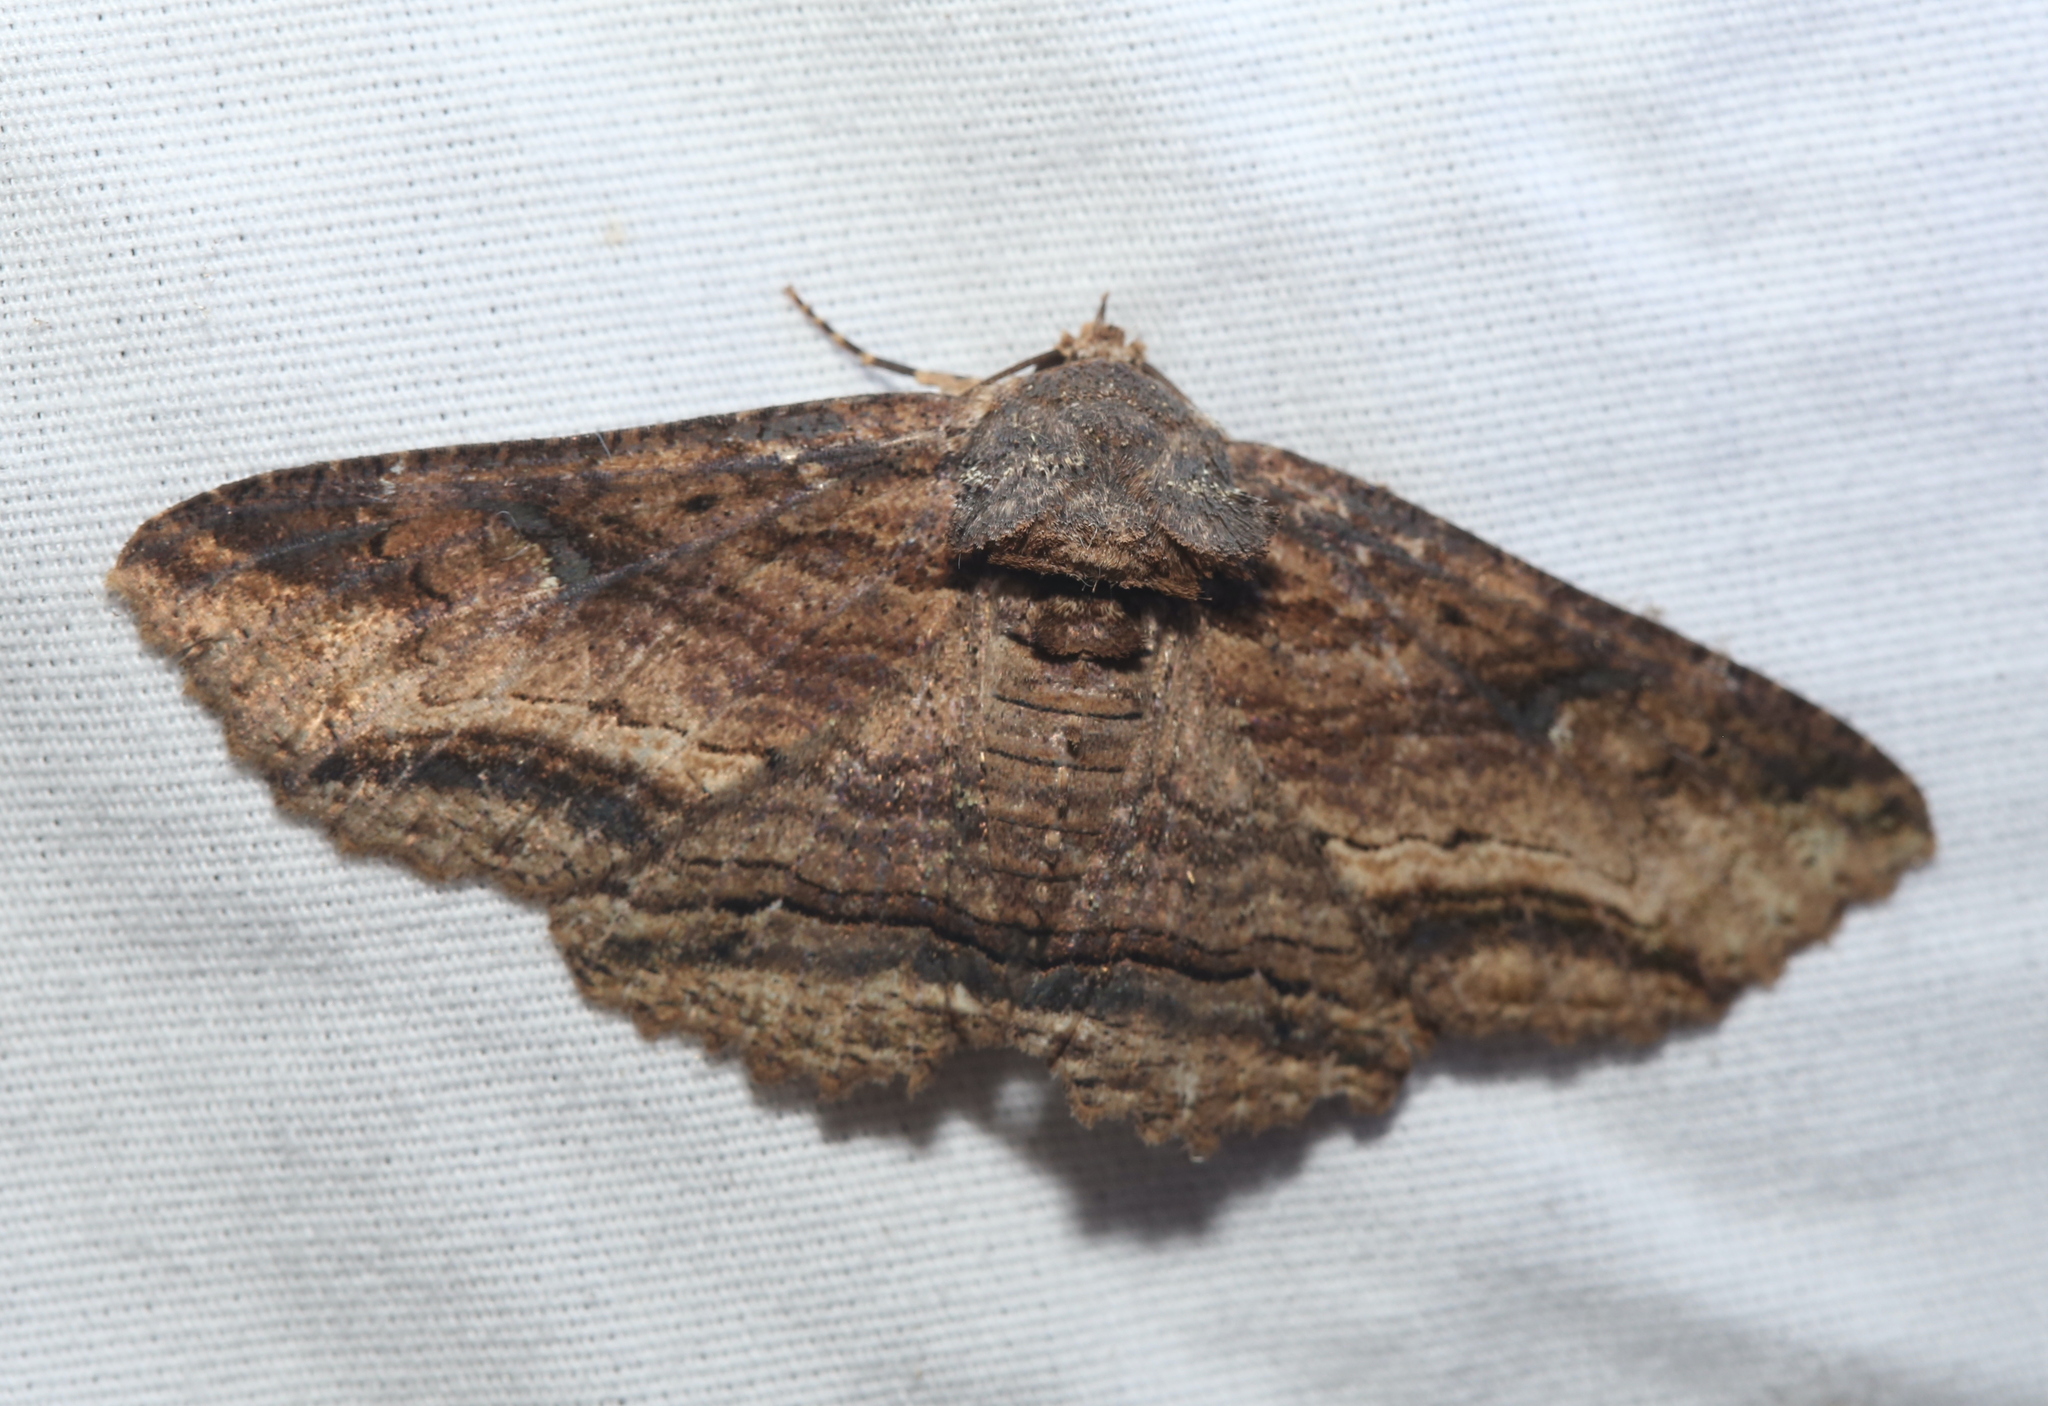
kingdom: Animalia
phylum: Arthropoda
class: Insecta
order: Lepidoptera
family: Erebidae
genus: Zale
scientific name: Zale lunata
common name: Lunate zale moth
